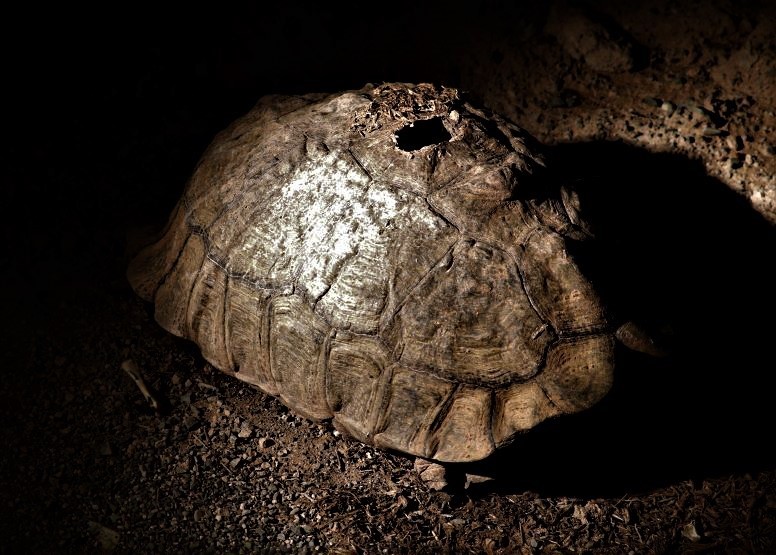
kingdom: Animalia
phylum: Chordata
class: Testudines
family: Testudinidae
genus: Stigmochelys
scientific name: Stigmochelys pardalis
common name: Leopard tortoise
